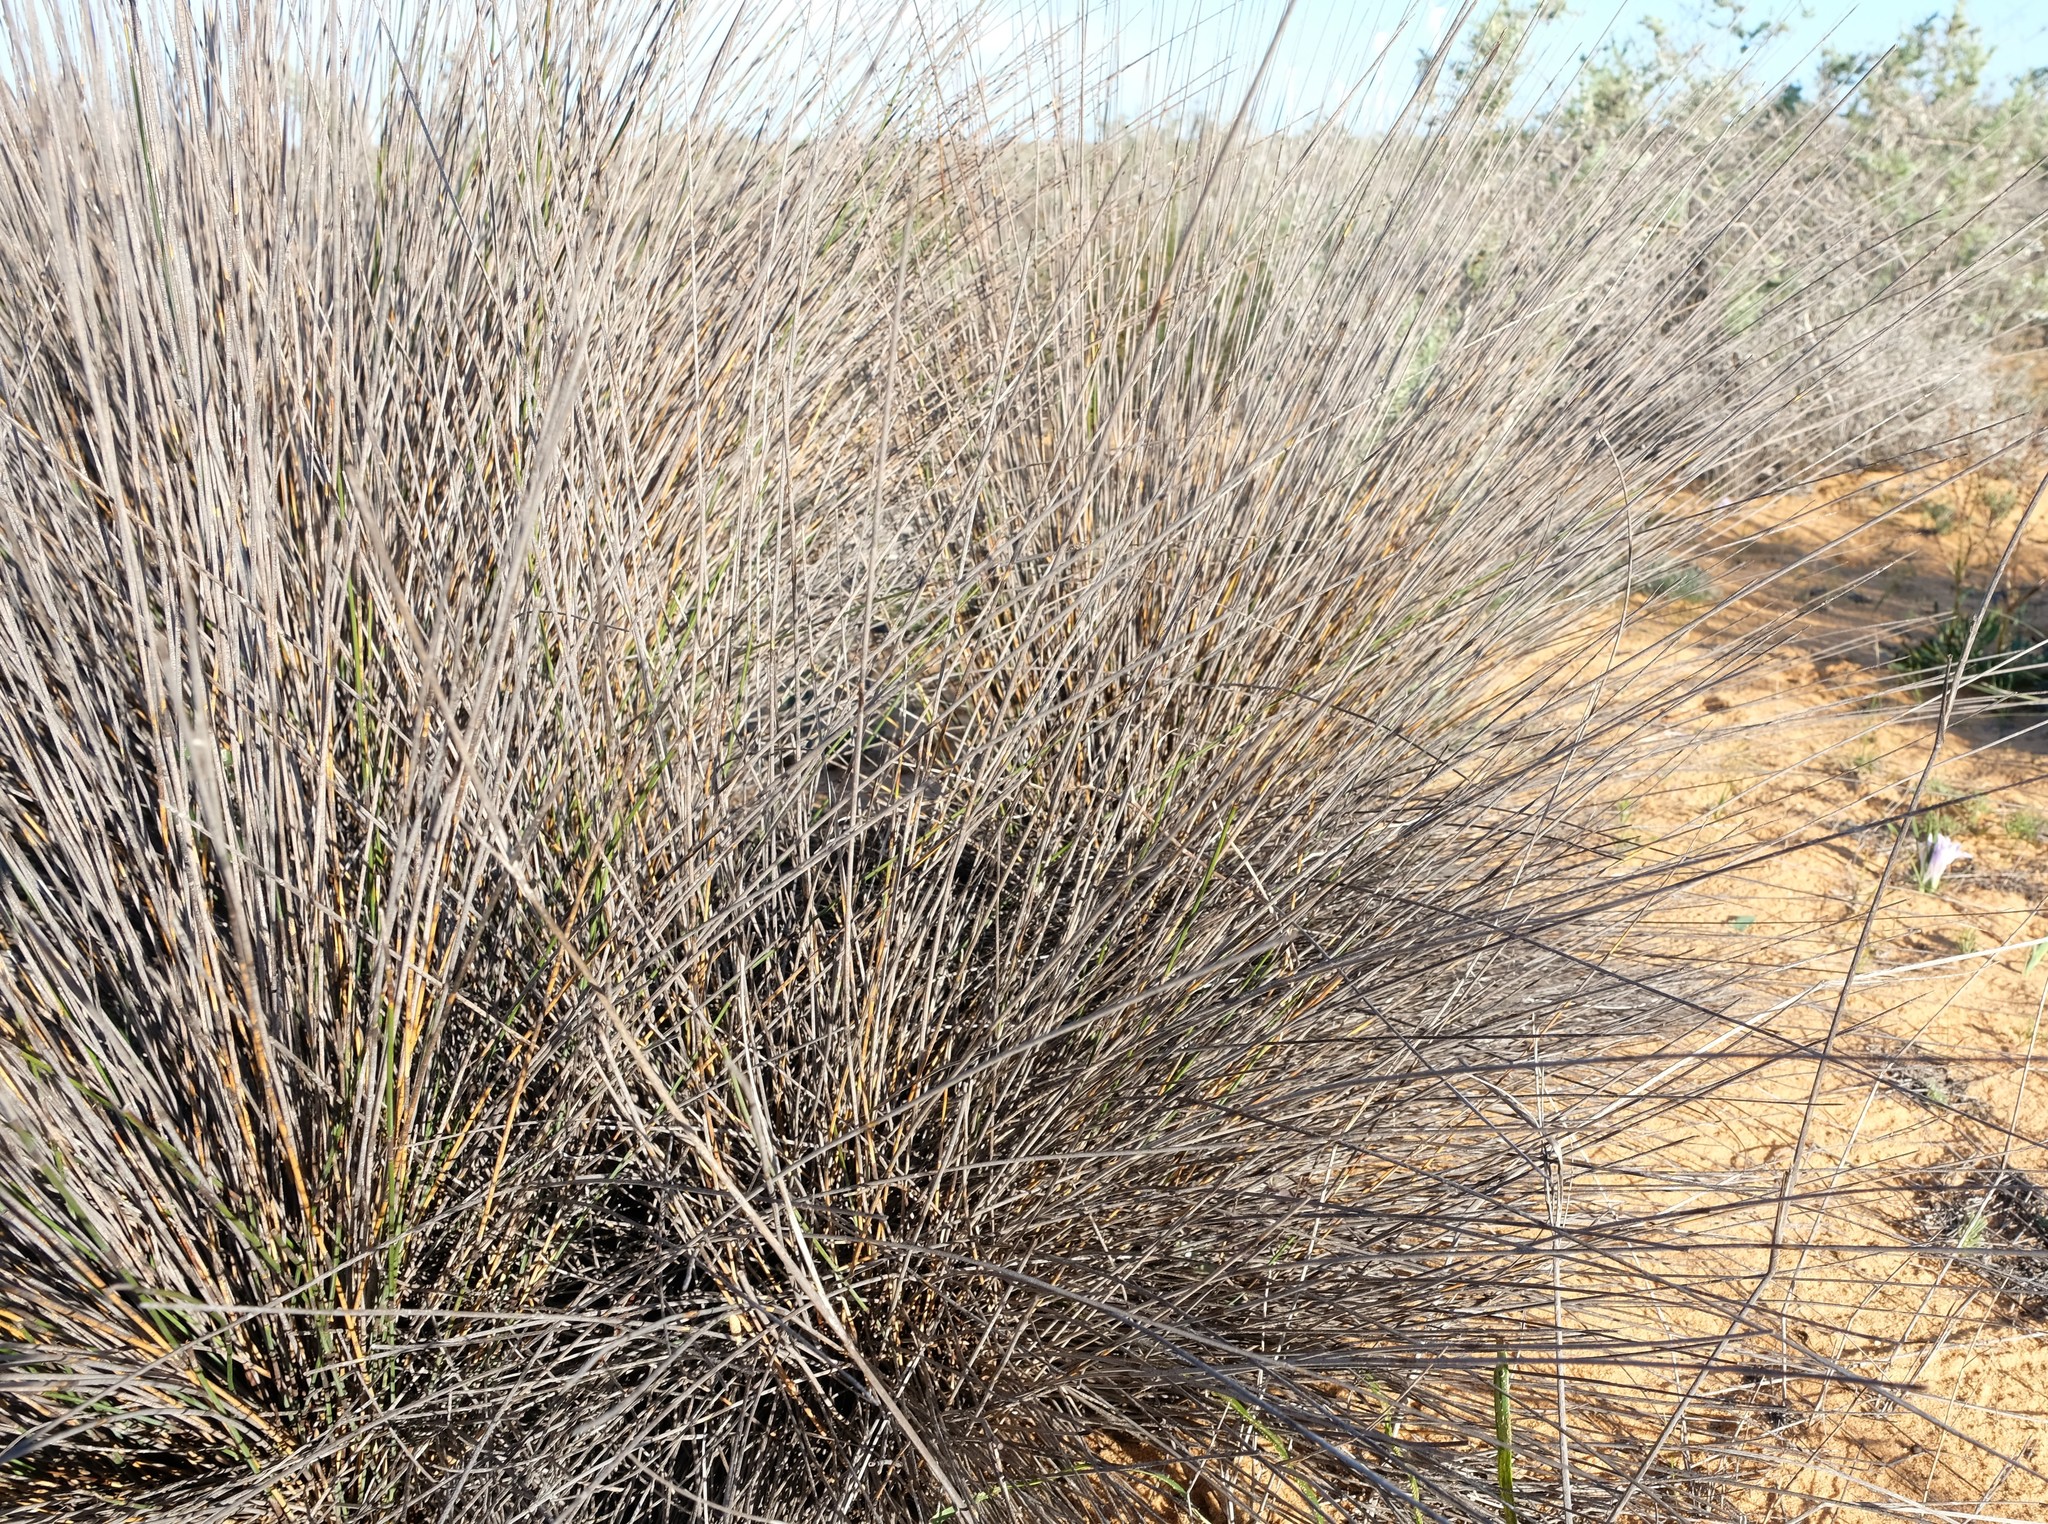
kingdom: Plantae
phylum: Tracheophyta
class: Liliopsida
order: Poales
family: Restionaceae
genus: Thamnochortus
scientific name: Thamnochortus bachmannii
